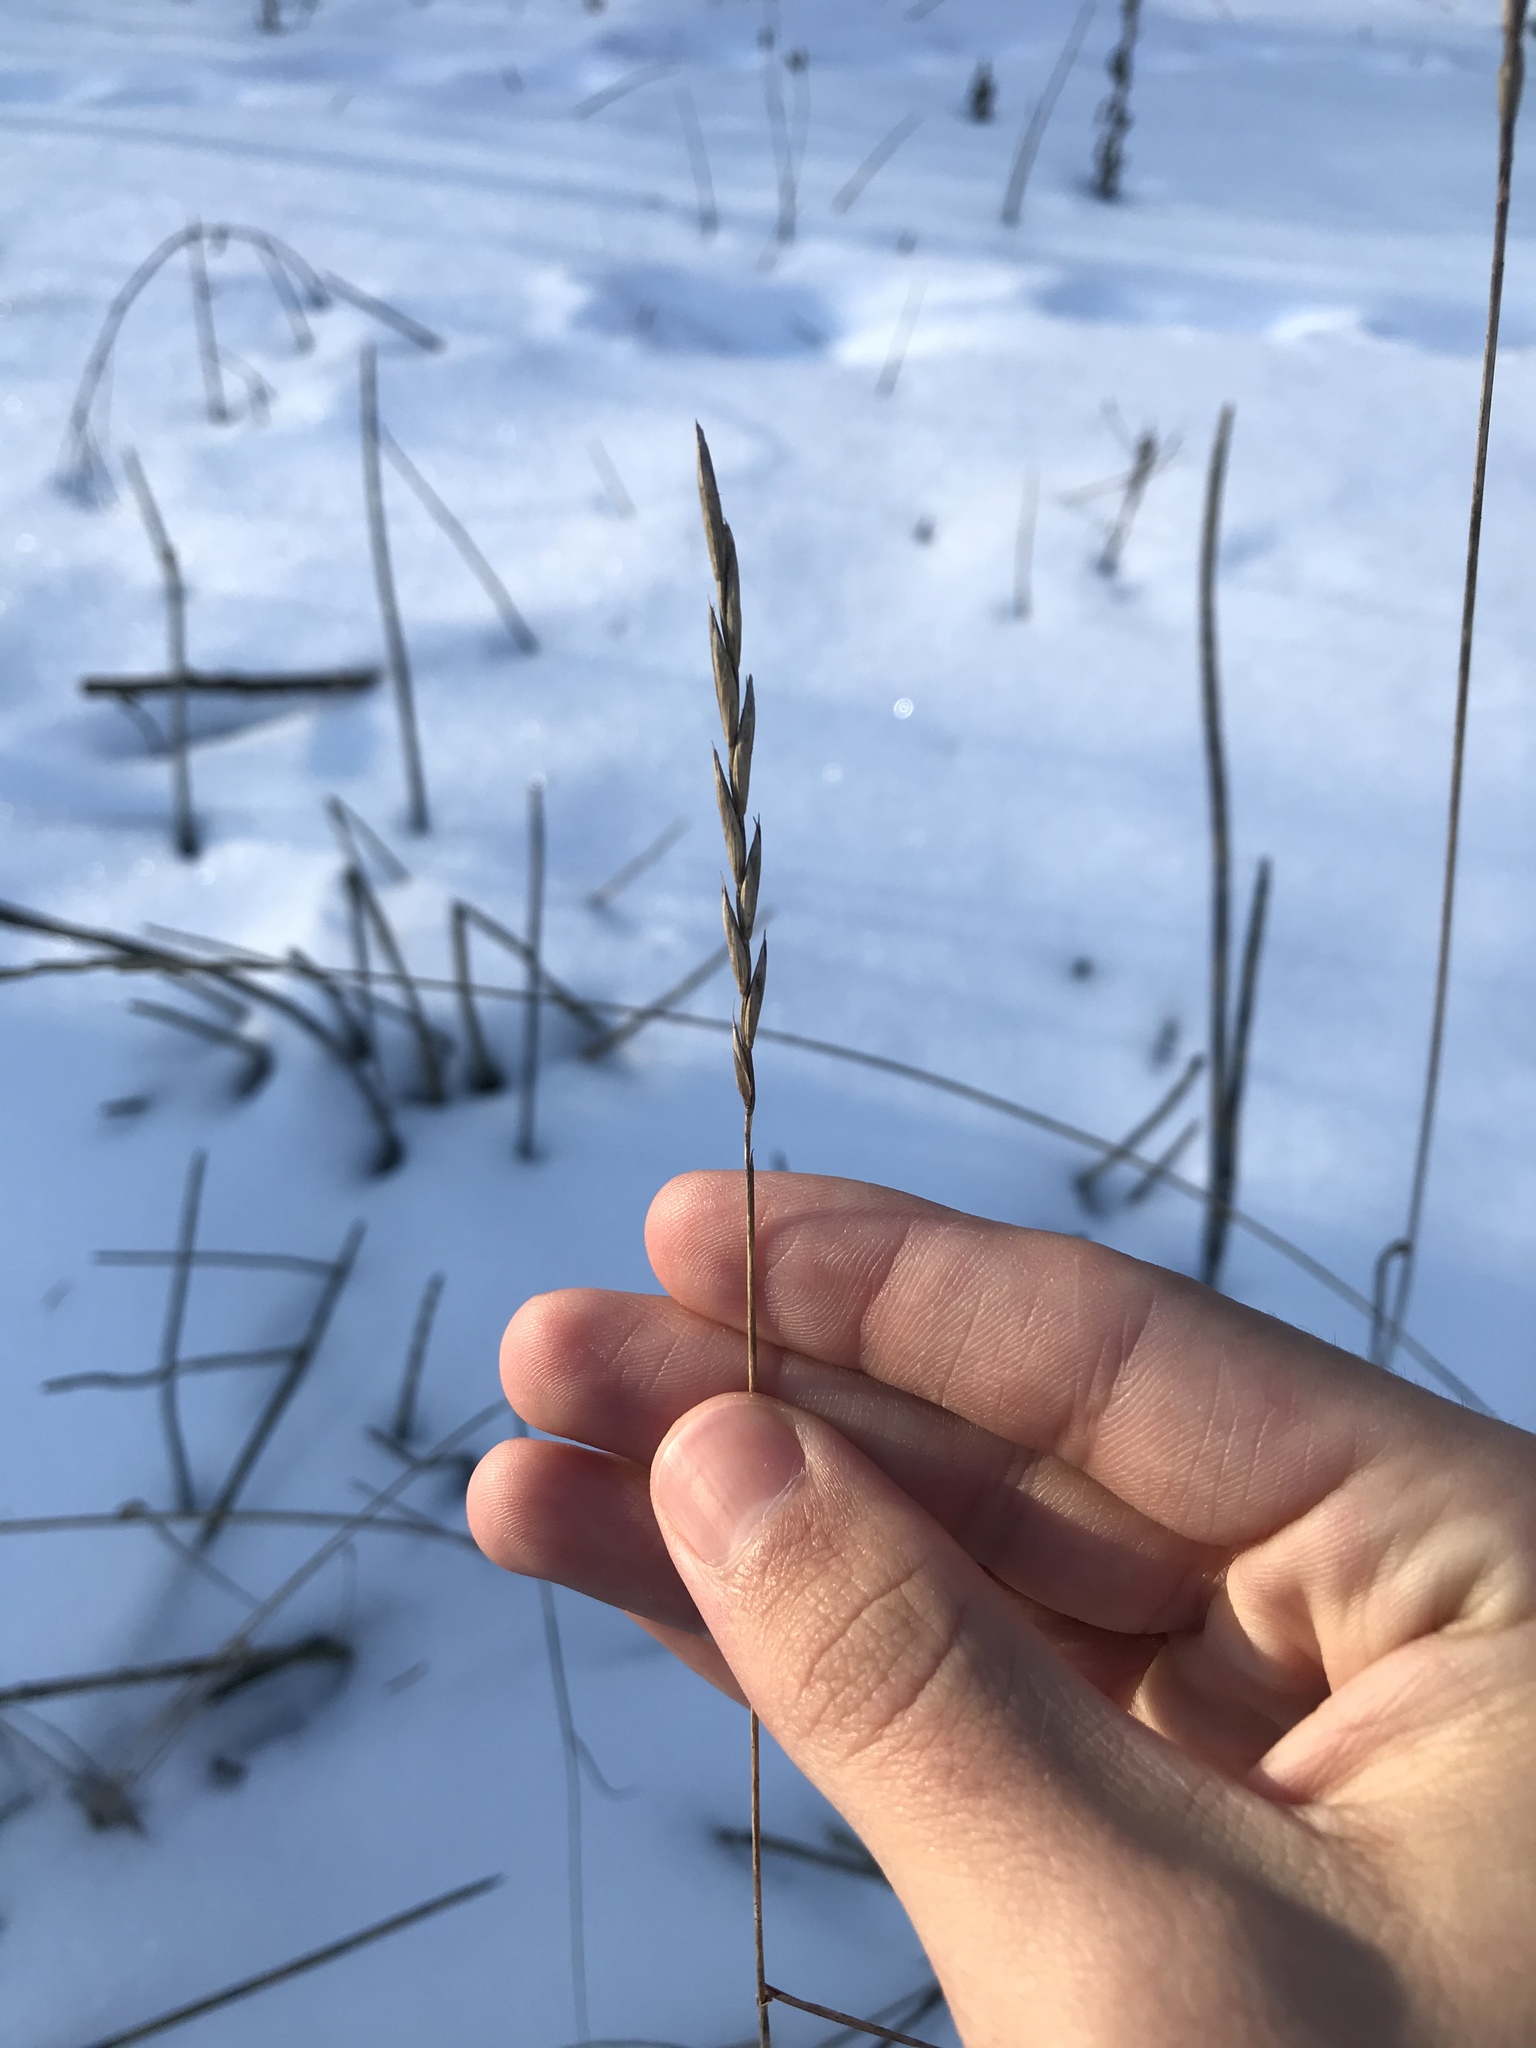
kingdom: Plantae
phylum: Tracheophyta
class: Liliopsida
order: Poales
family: Poaceae
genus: Elymus
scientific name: Elymus repens
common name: Quackgrass
